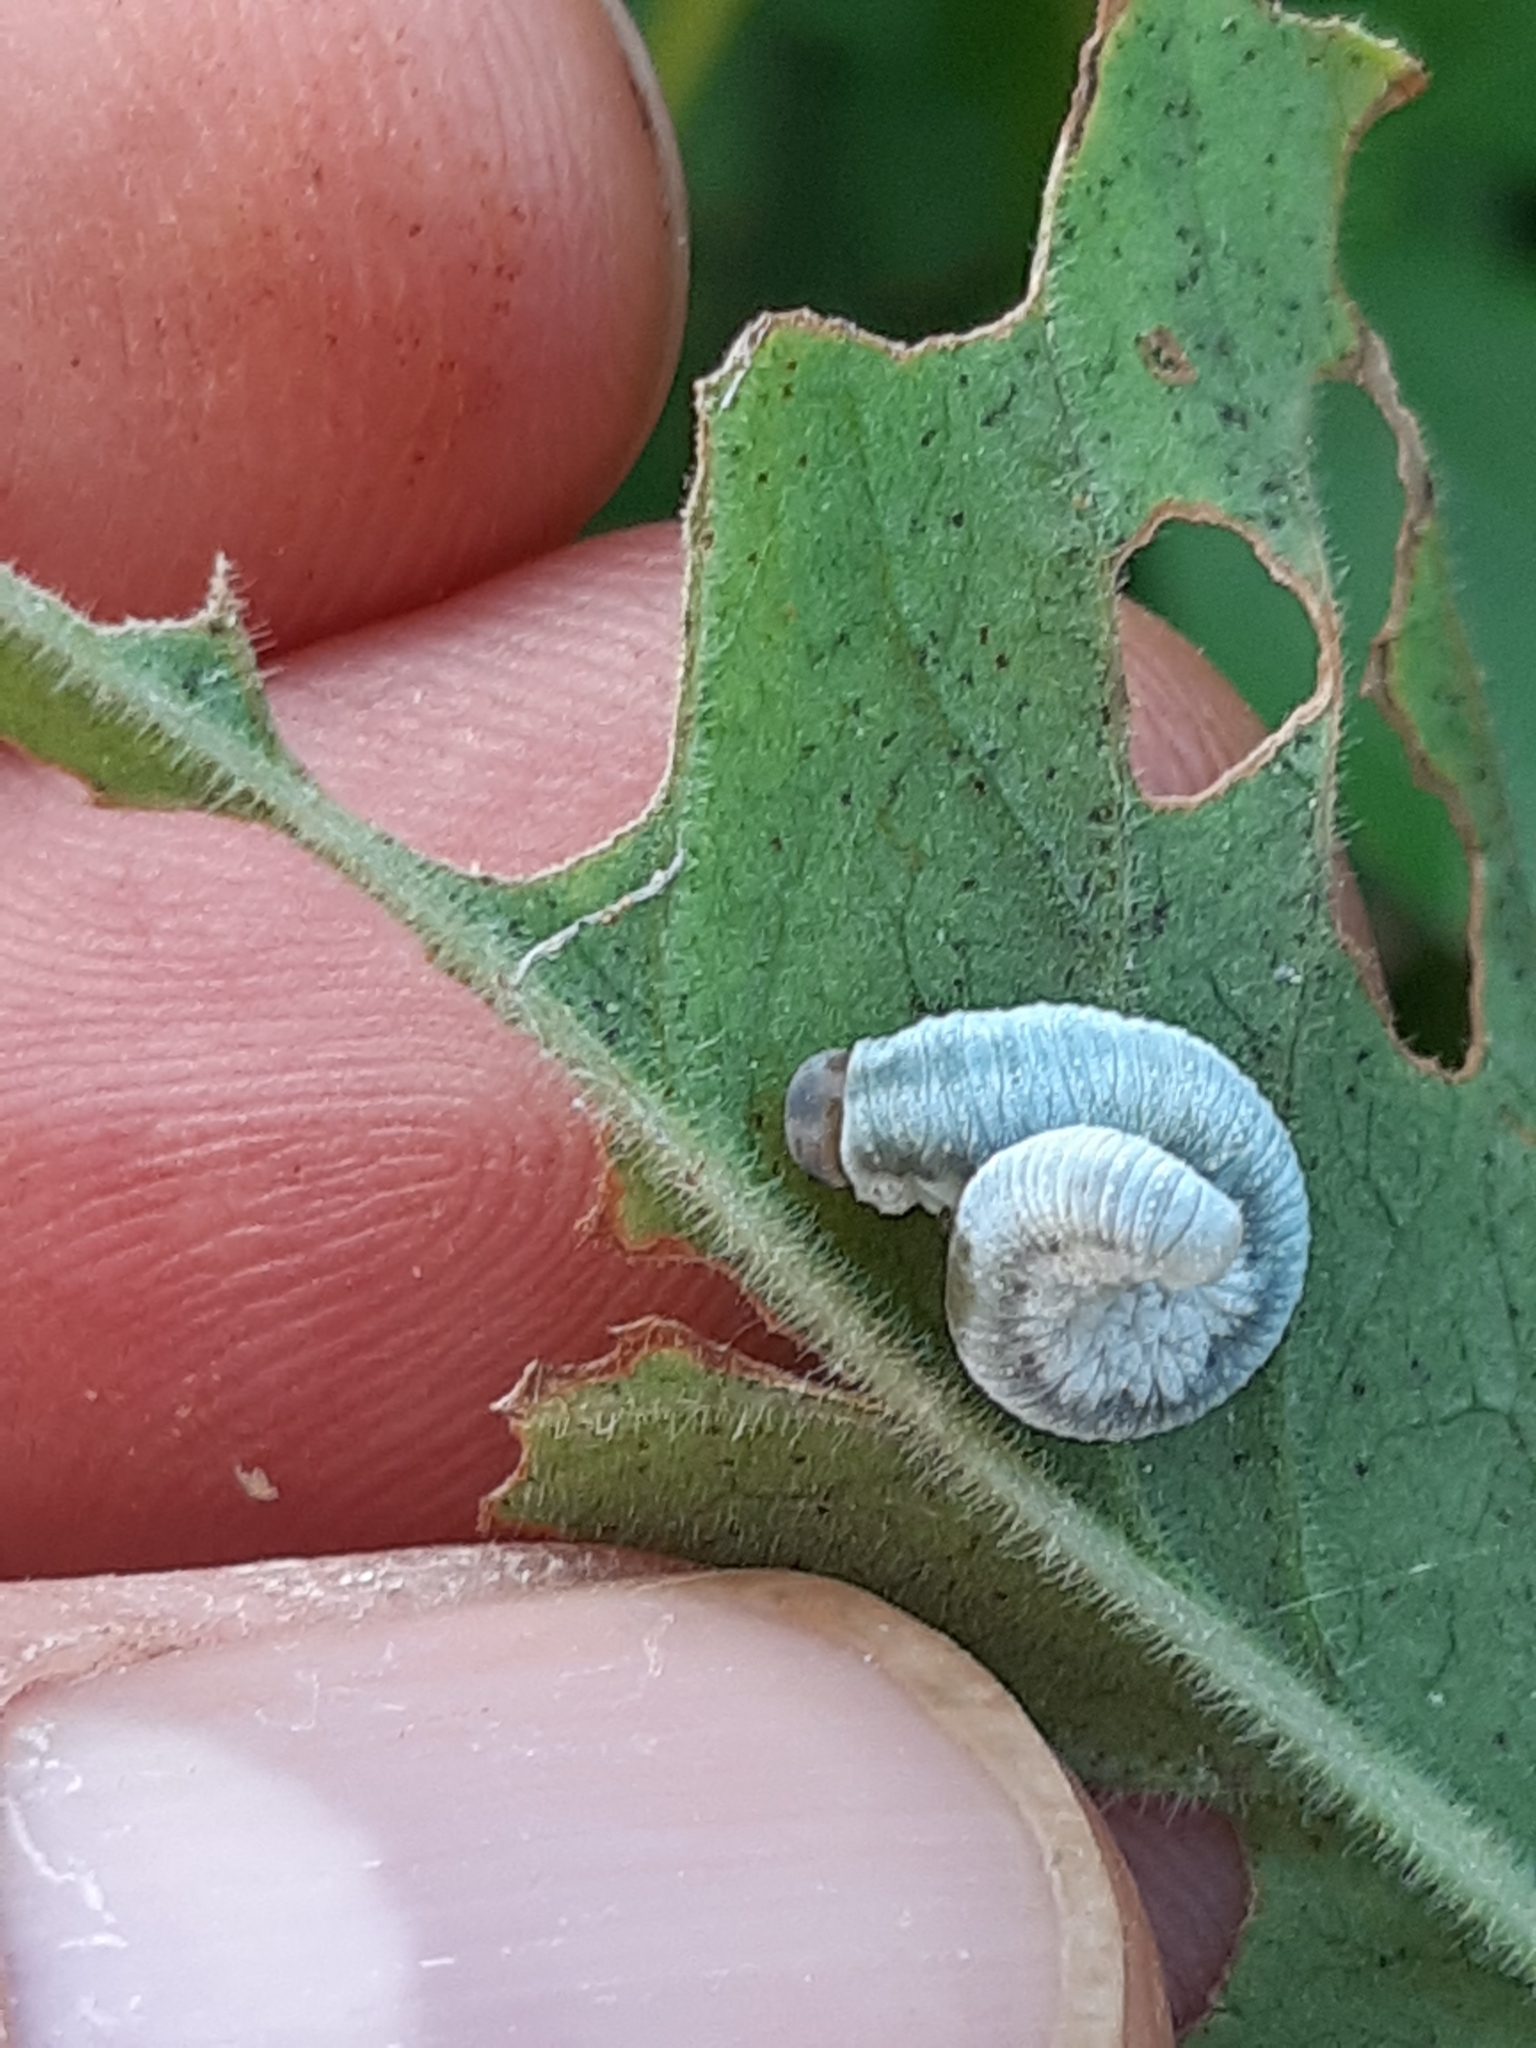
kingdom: Animalia
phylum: Arthropoda
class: Insecta
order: Hymenoptera
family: Tenthredinidae
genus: Monostegia
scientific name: Monostegia abdominalis
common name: Tenthredid wasp
